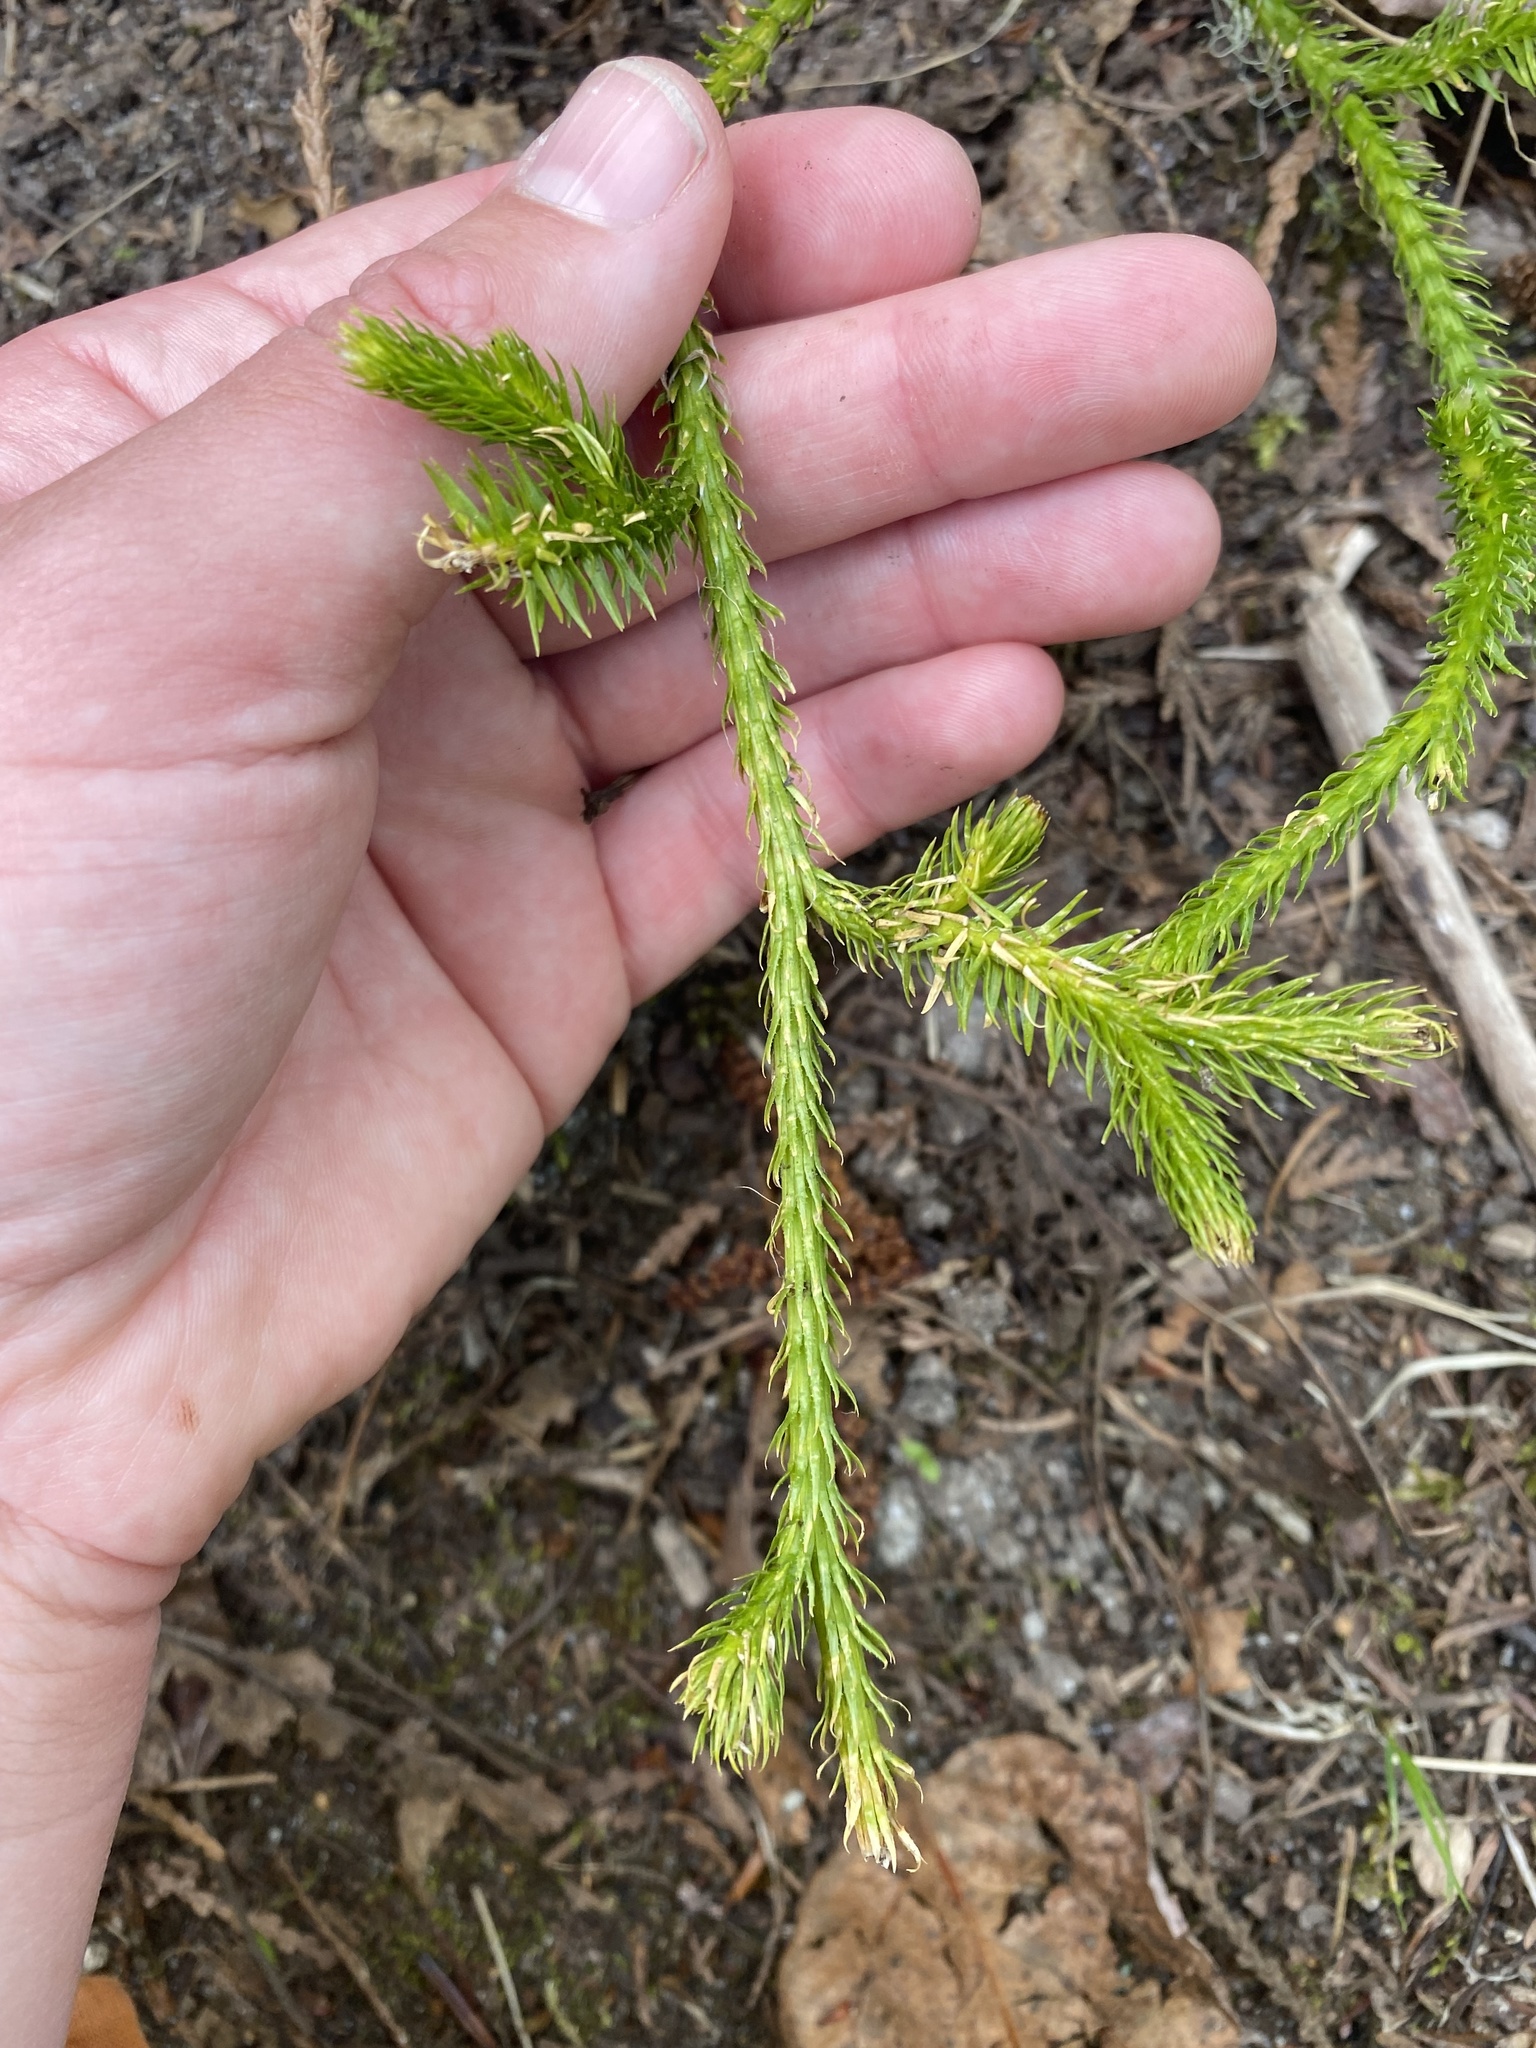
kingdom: Plantae
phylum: Tracheophyta
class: Lycopodiopsida
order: Lycopodiales
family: Lycopodiaceae
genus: Lycopodium
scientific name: Lycopodium clavatum
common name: Stag's-horn clubmoss
